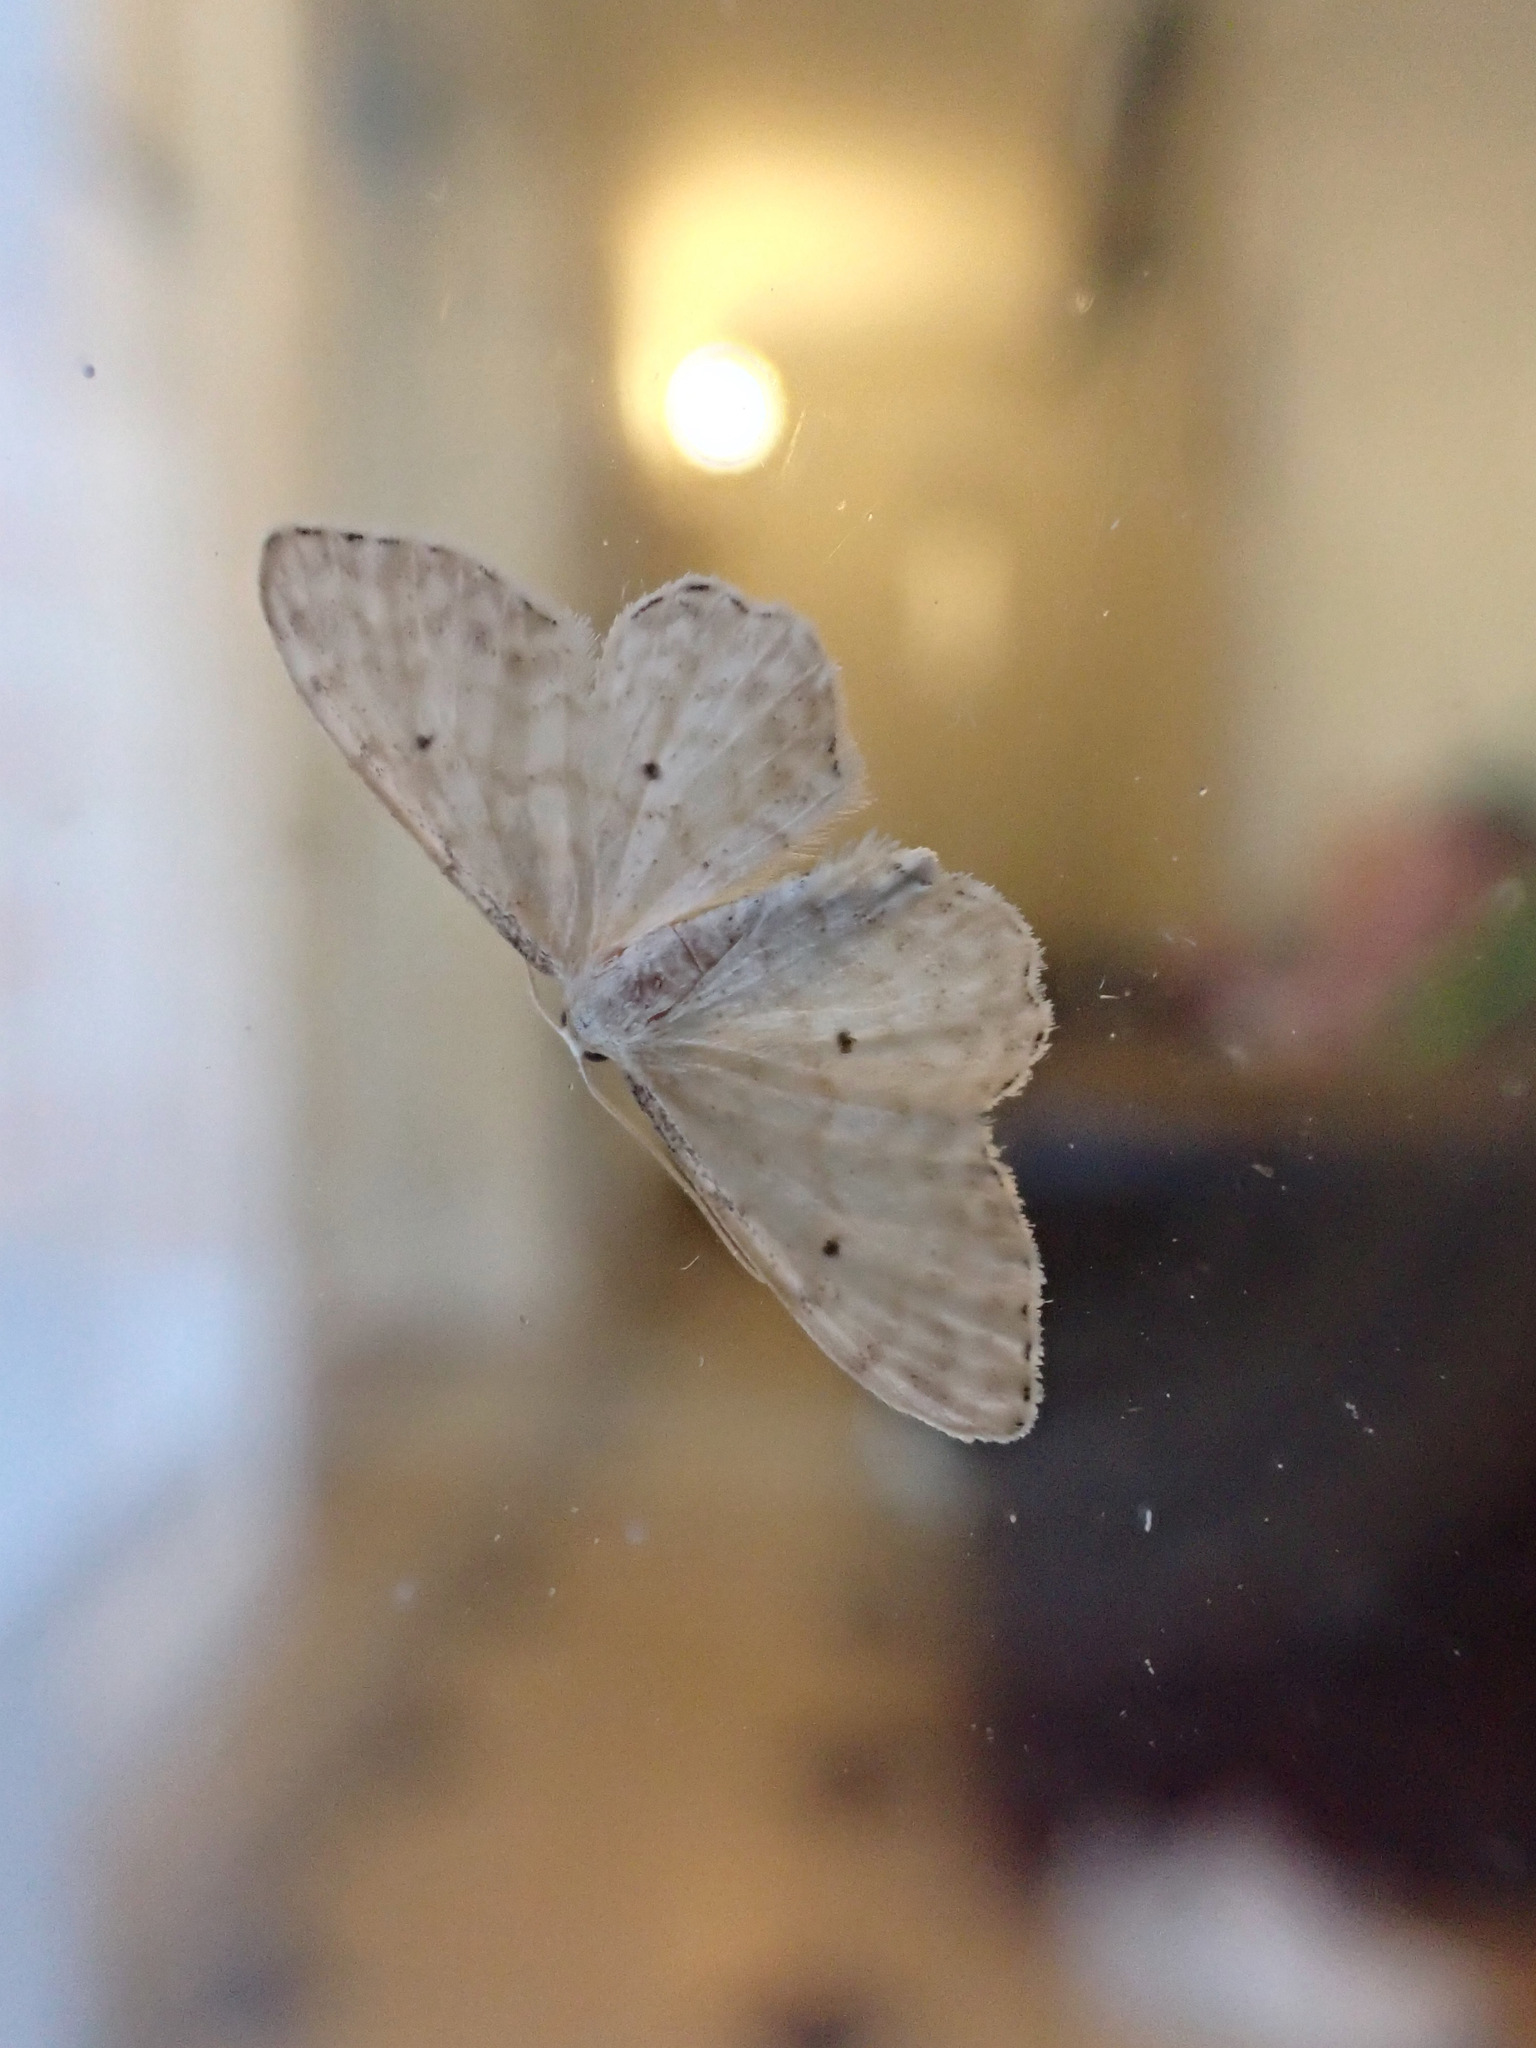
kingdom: Animalia
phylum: Arthropoda
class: Insecta
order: Lepidoptera
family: Geometridae
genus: Idaea
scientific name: Idaea fuscovenosa
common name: Dwarf cream wave
